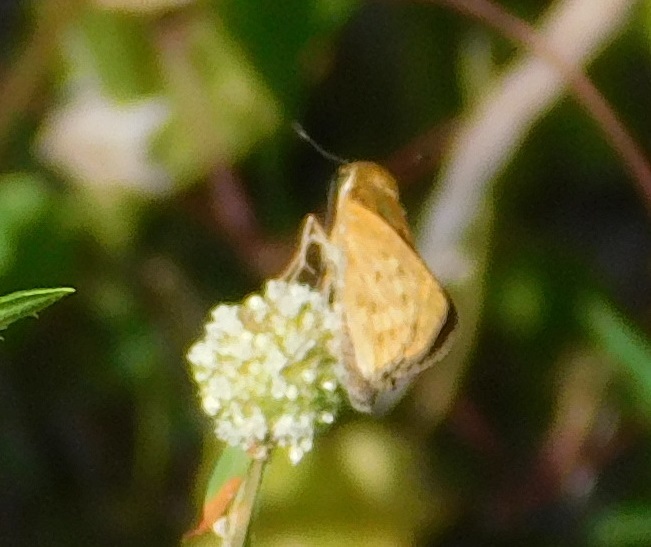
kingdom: Animalia
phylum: Arthropoda
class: Insecta
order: Lepidoptera
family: Hesperiidae
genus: Hylephila
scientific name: Hylephila phyleus
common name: Fiery skipper
